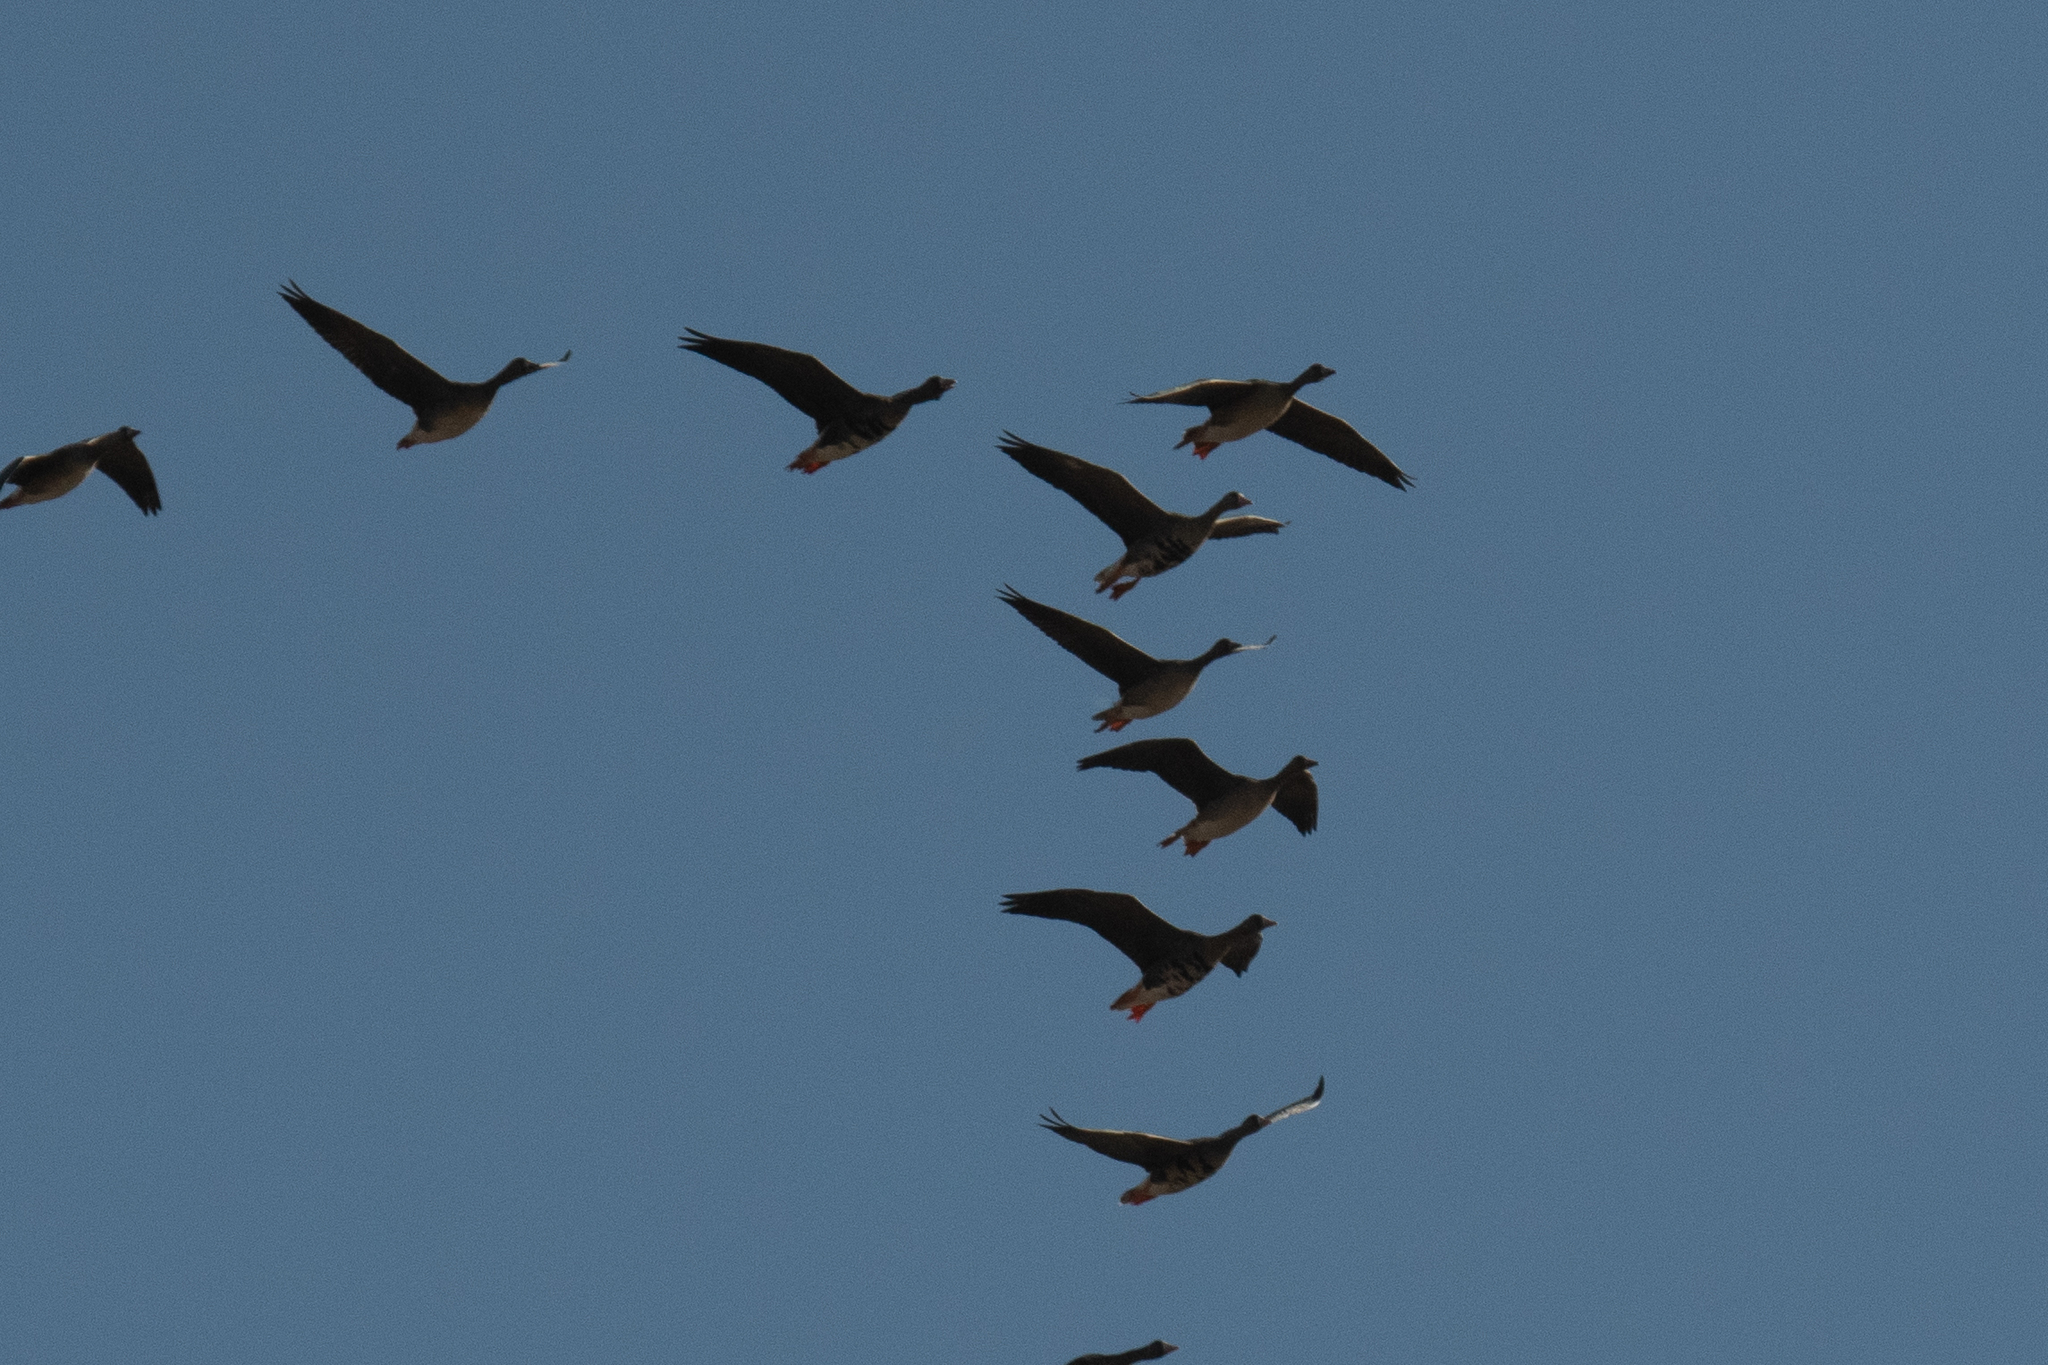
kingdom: Animalia
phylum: Chordata
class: Aves
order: Anseriformes
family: Anatidae
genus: Anser
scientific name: Anser albifrons
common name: Greater white-fronted goose
